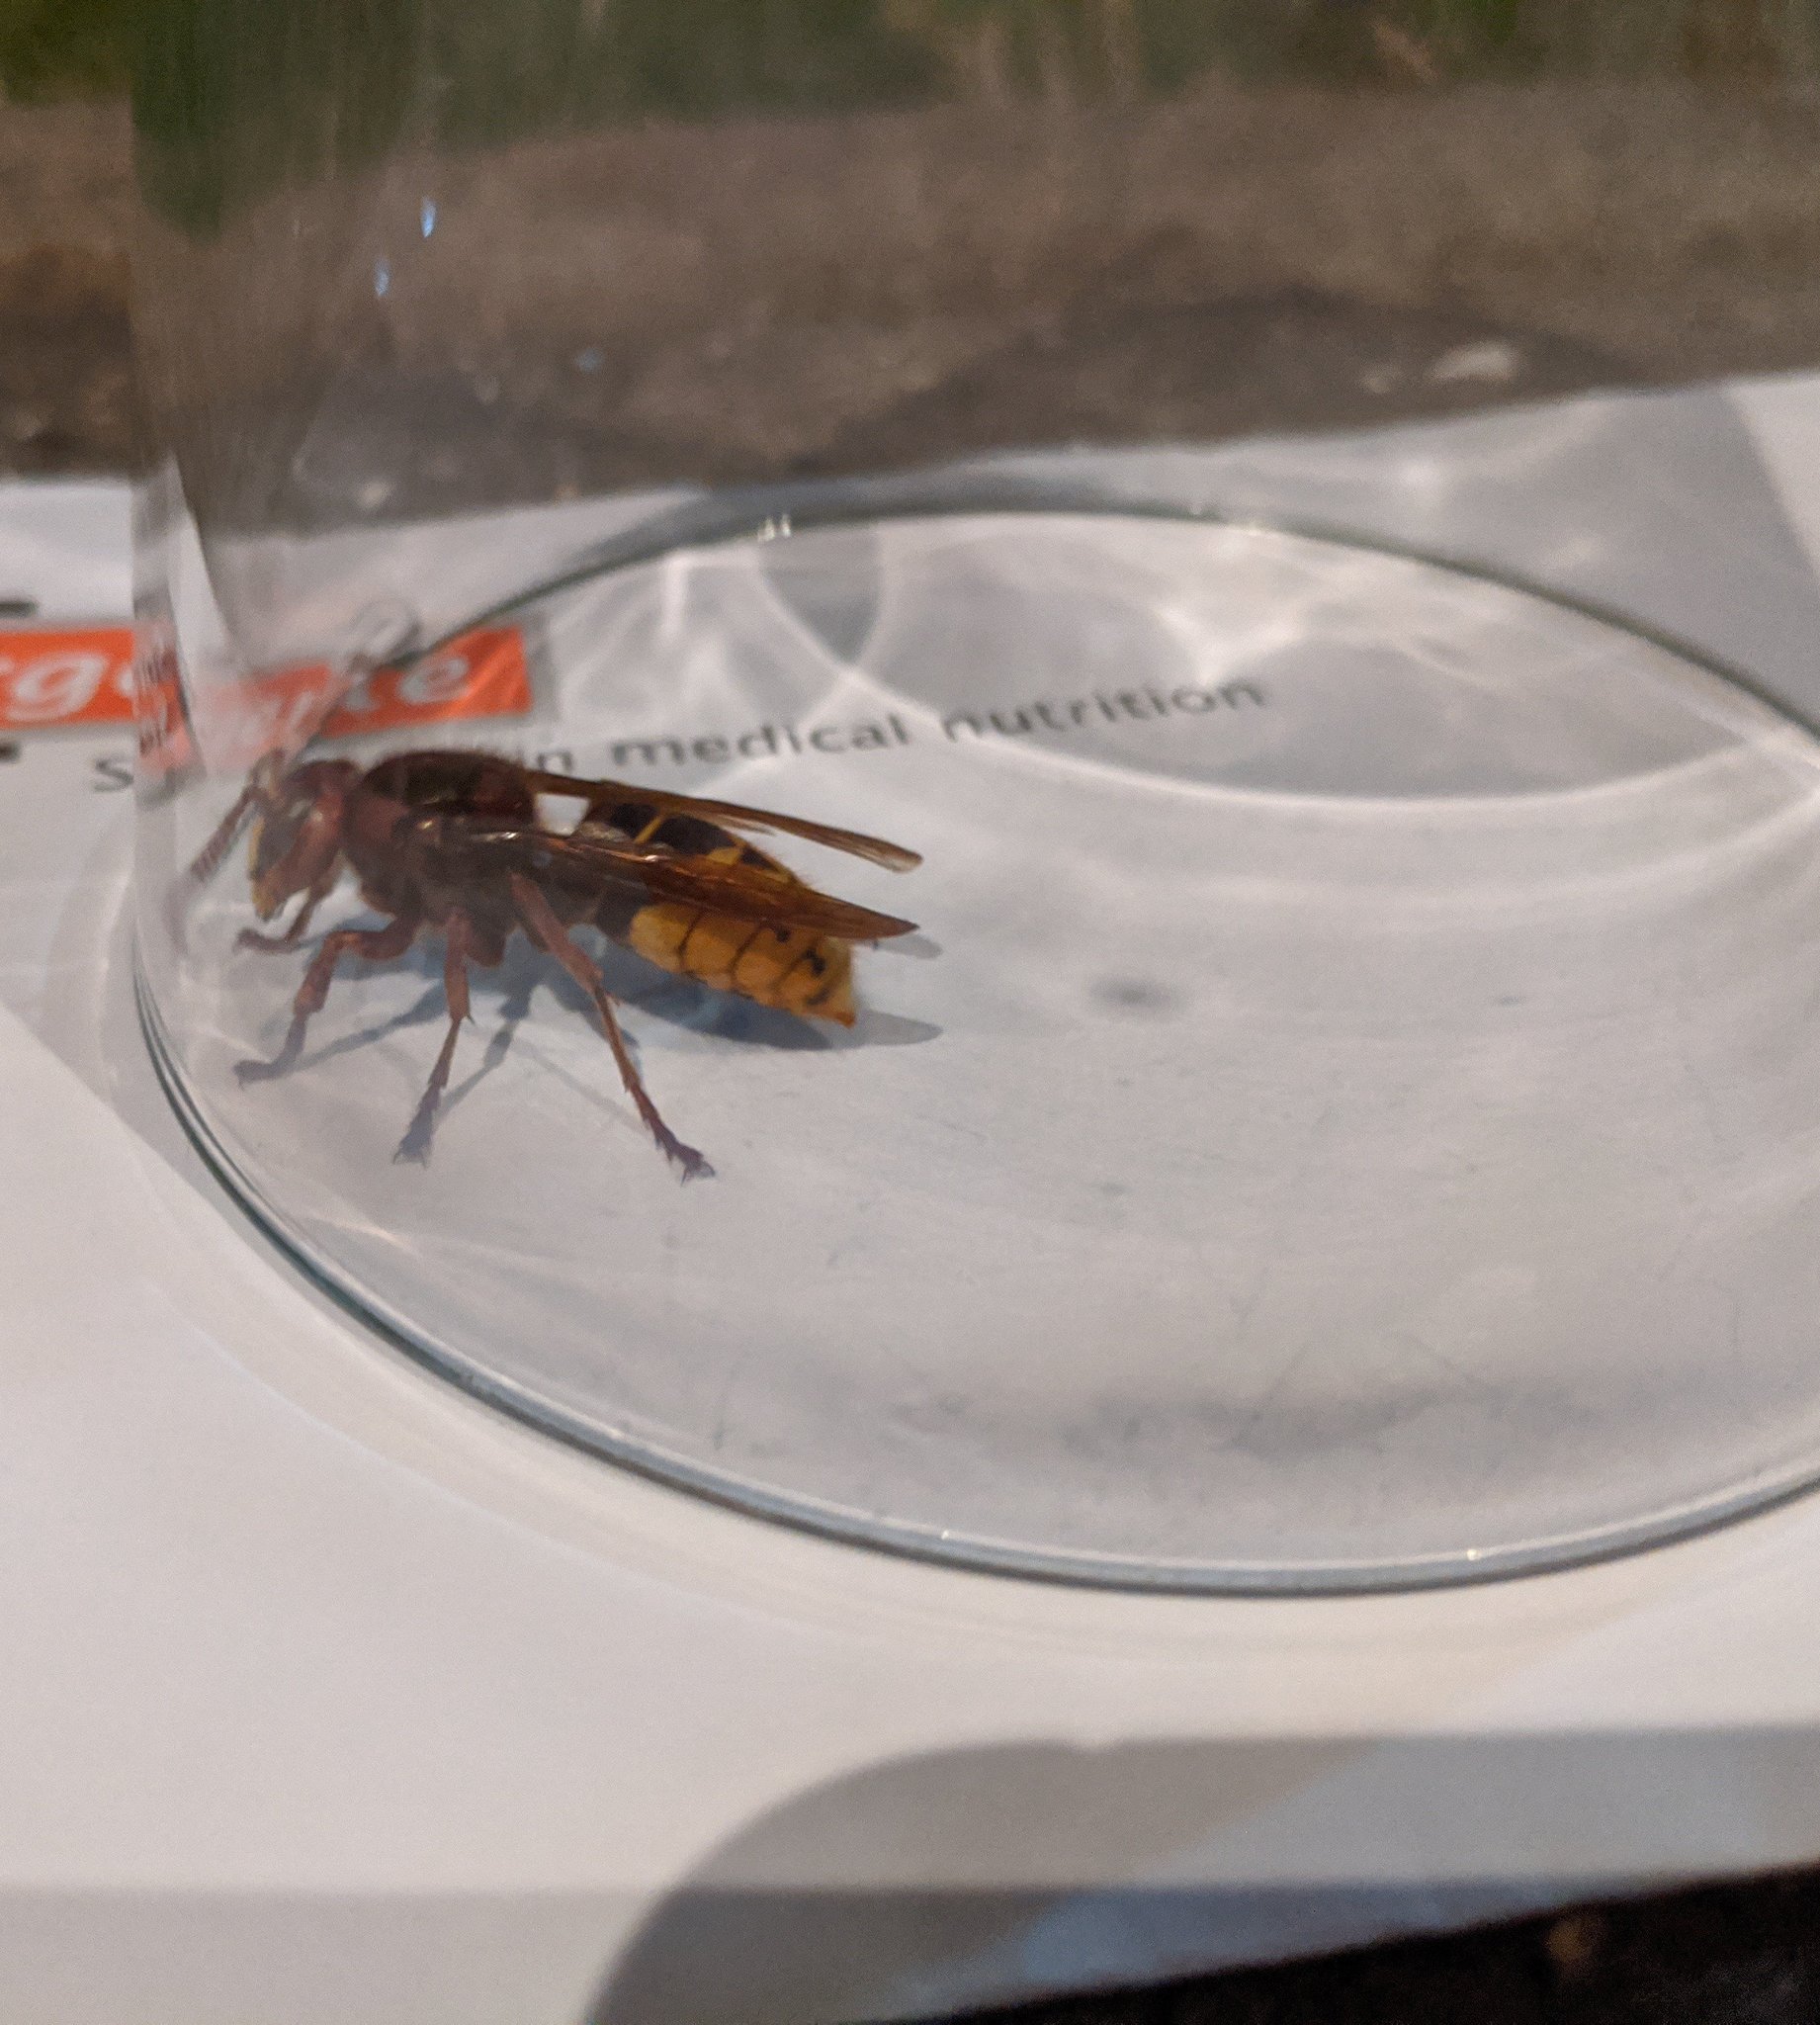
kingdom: Animalia
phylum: Arthropoda
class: Insecta
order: Hymenoptera
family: Vespidae
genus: Vespa
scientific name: Vespa crabro
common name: Hornet
